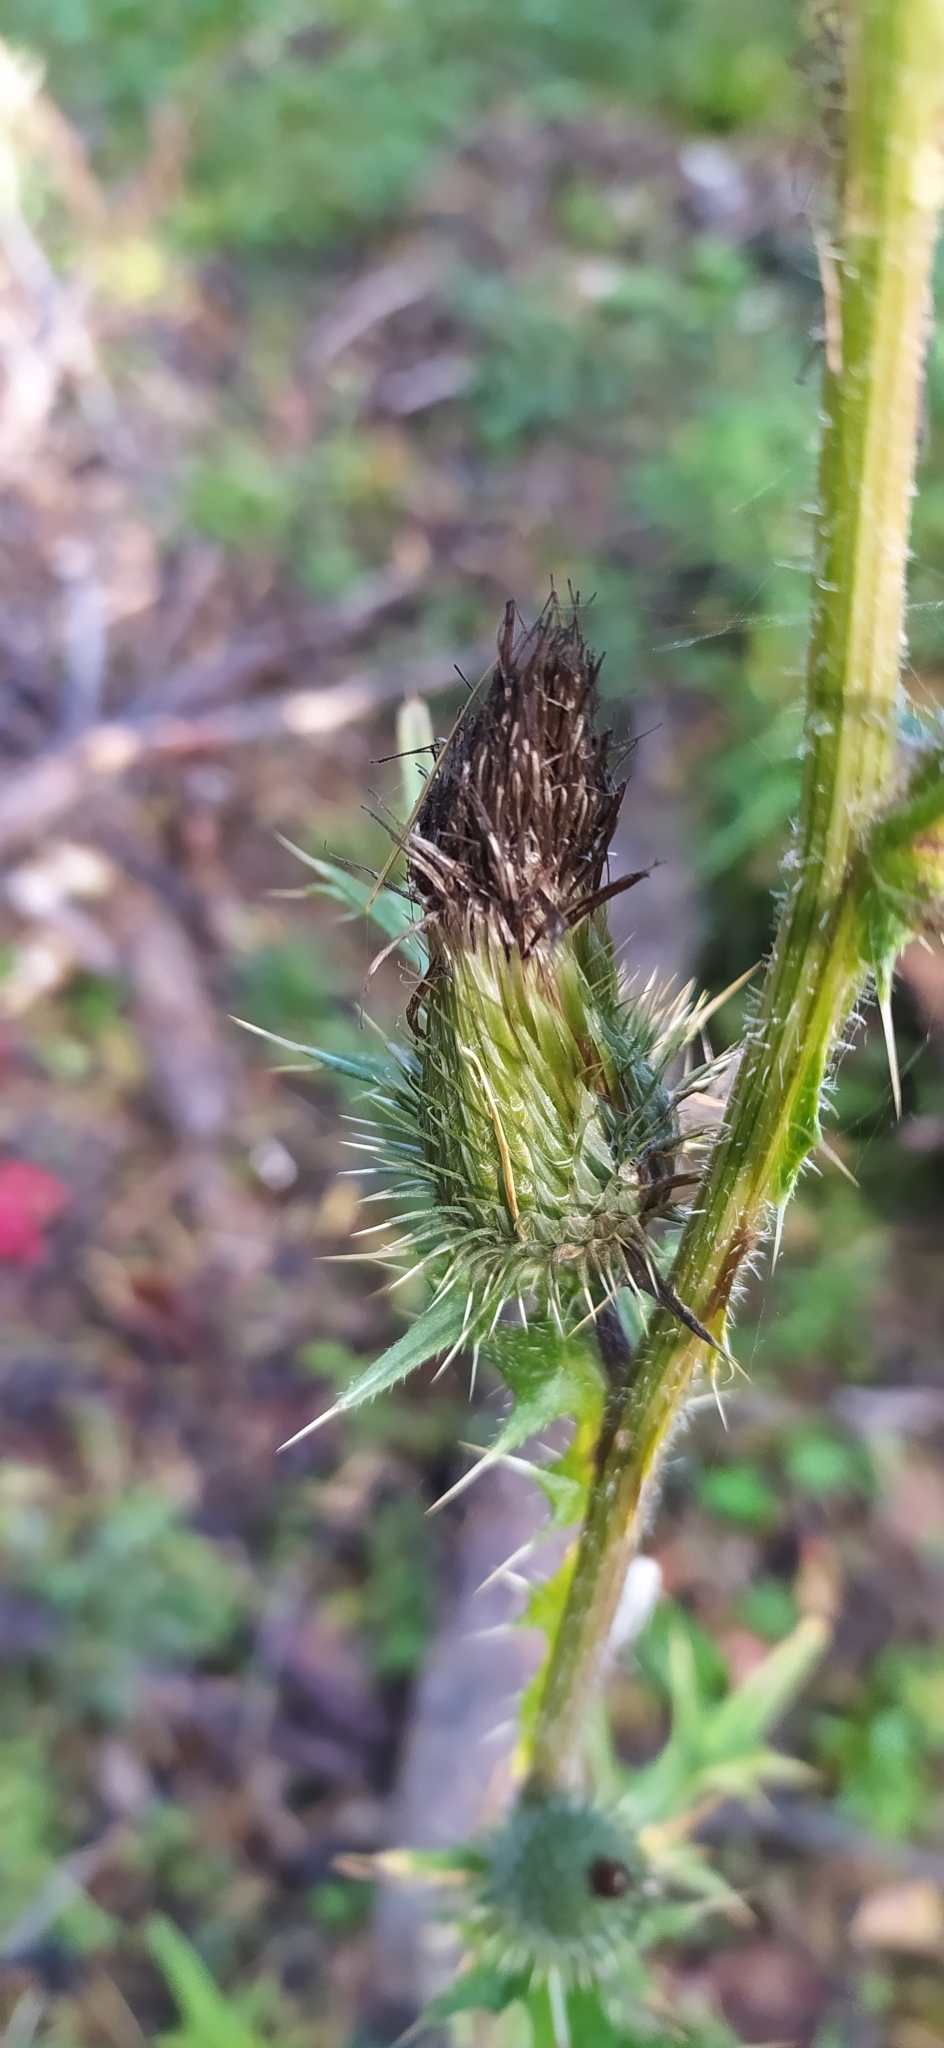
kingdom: Plantae
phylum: Tracheophyta
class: Magnoliopsida
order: Asterales
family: Asteraceae
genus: Cirsium
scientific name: Cirsium vulgare
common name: Bull thistle
